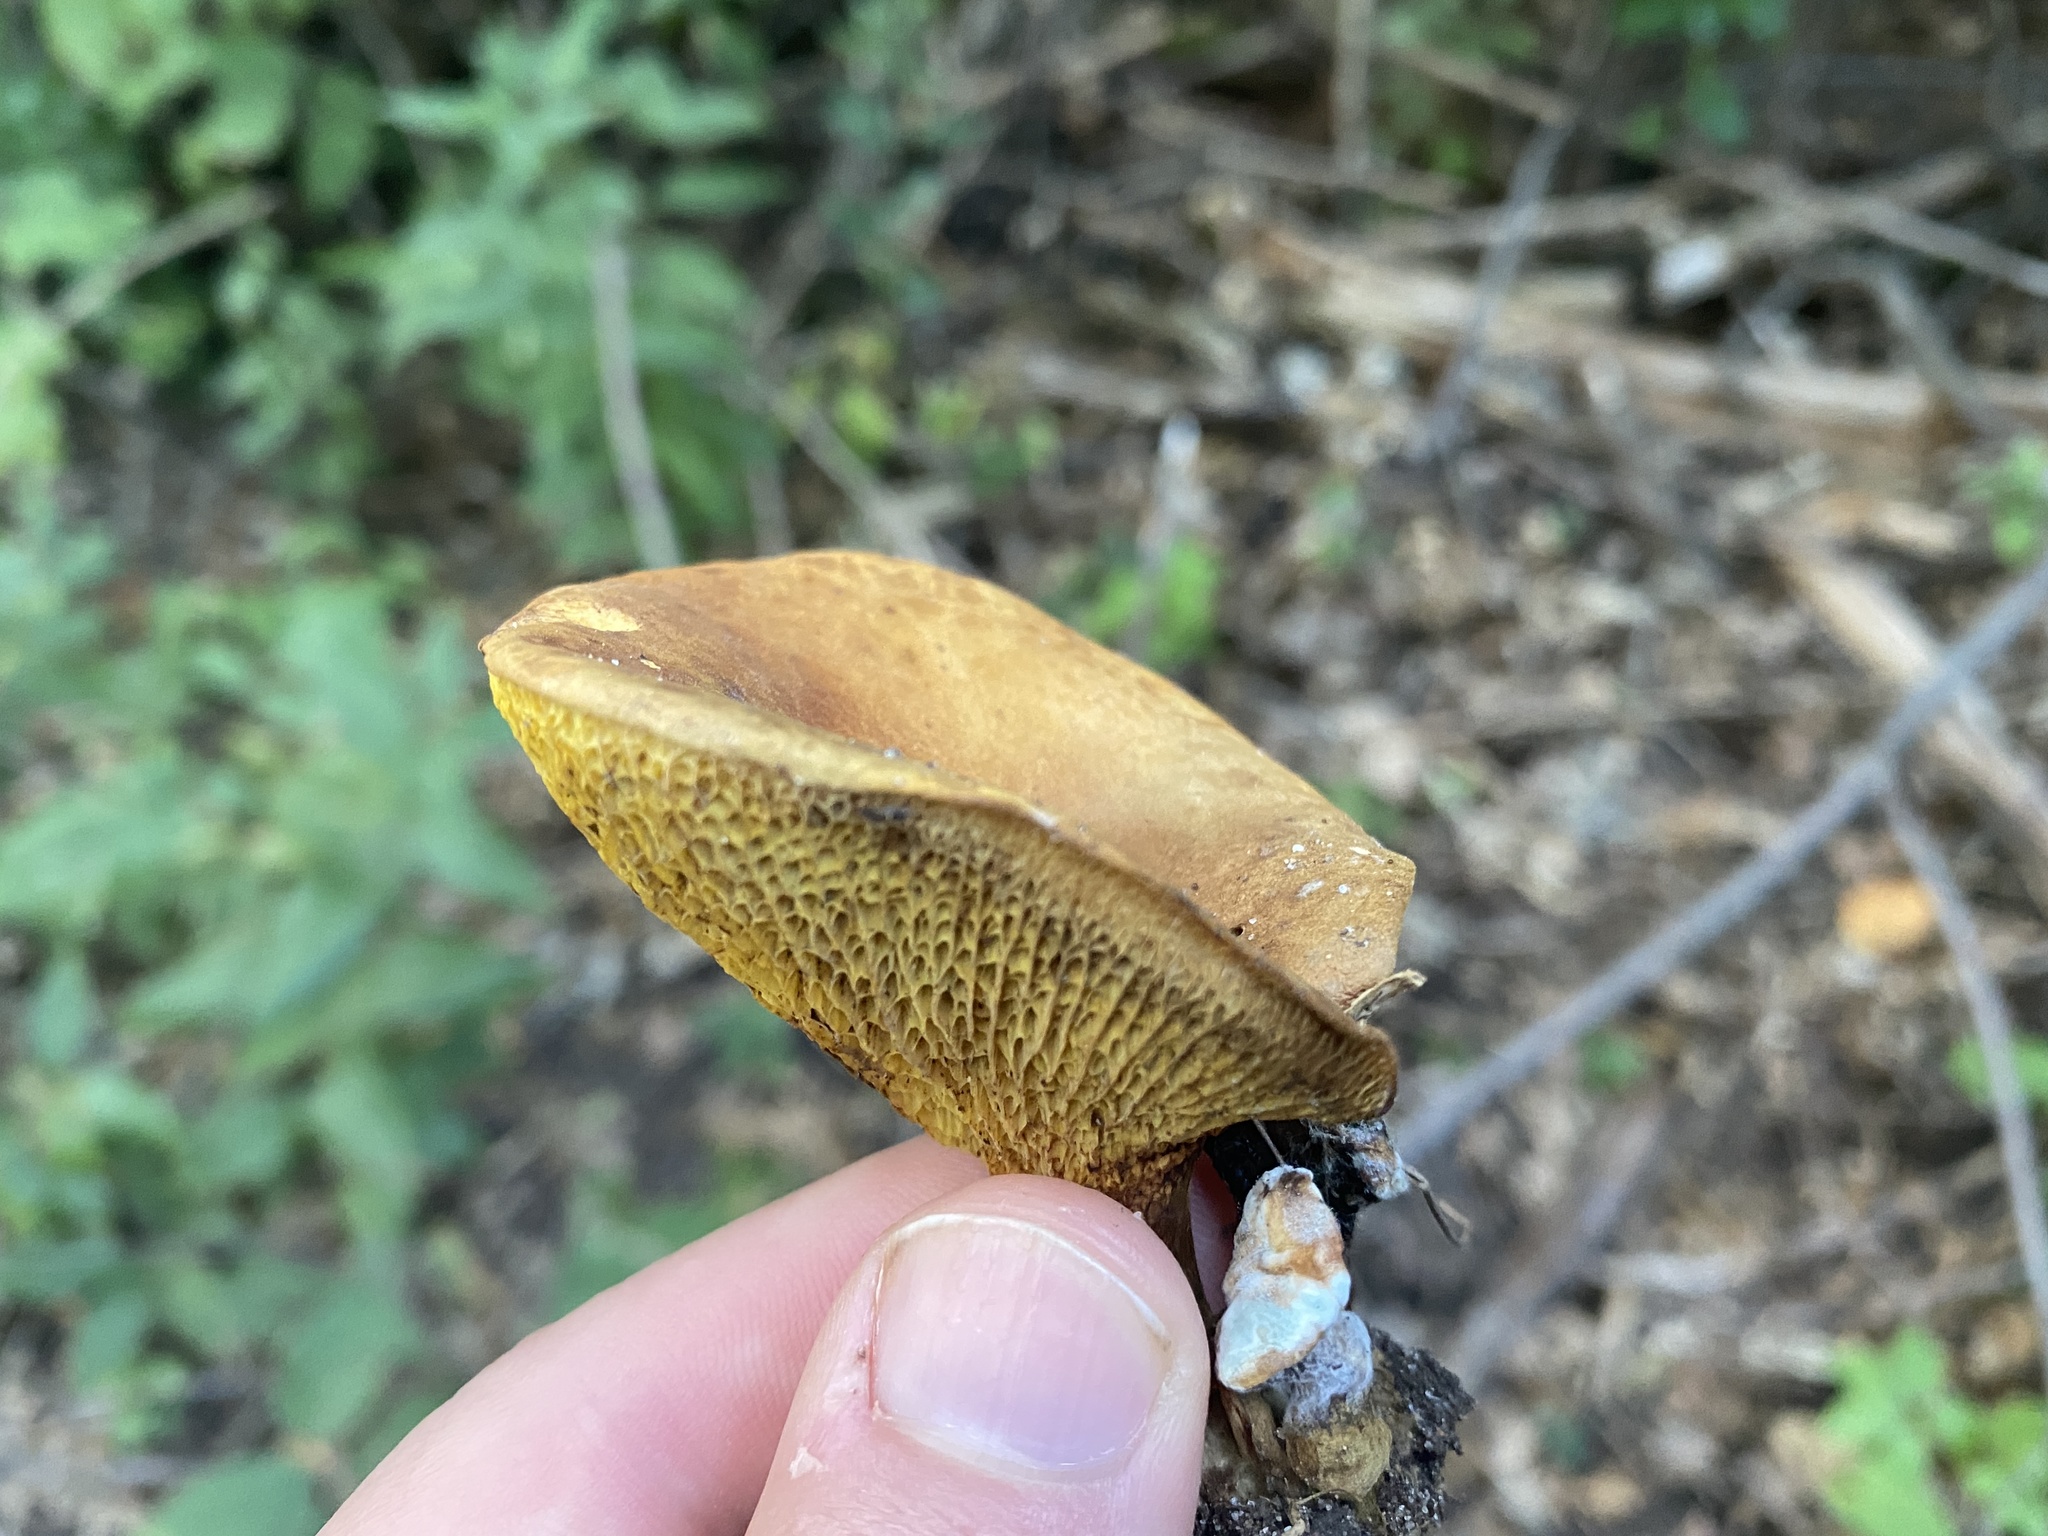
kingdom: Fungi
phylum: Basidiomycota
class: Agaricomycetes
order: Boletales
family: Boletinellaceae
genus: Boletinellus
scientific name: Boletinellus merulioides
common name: Ash tree bolete
